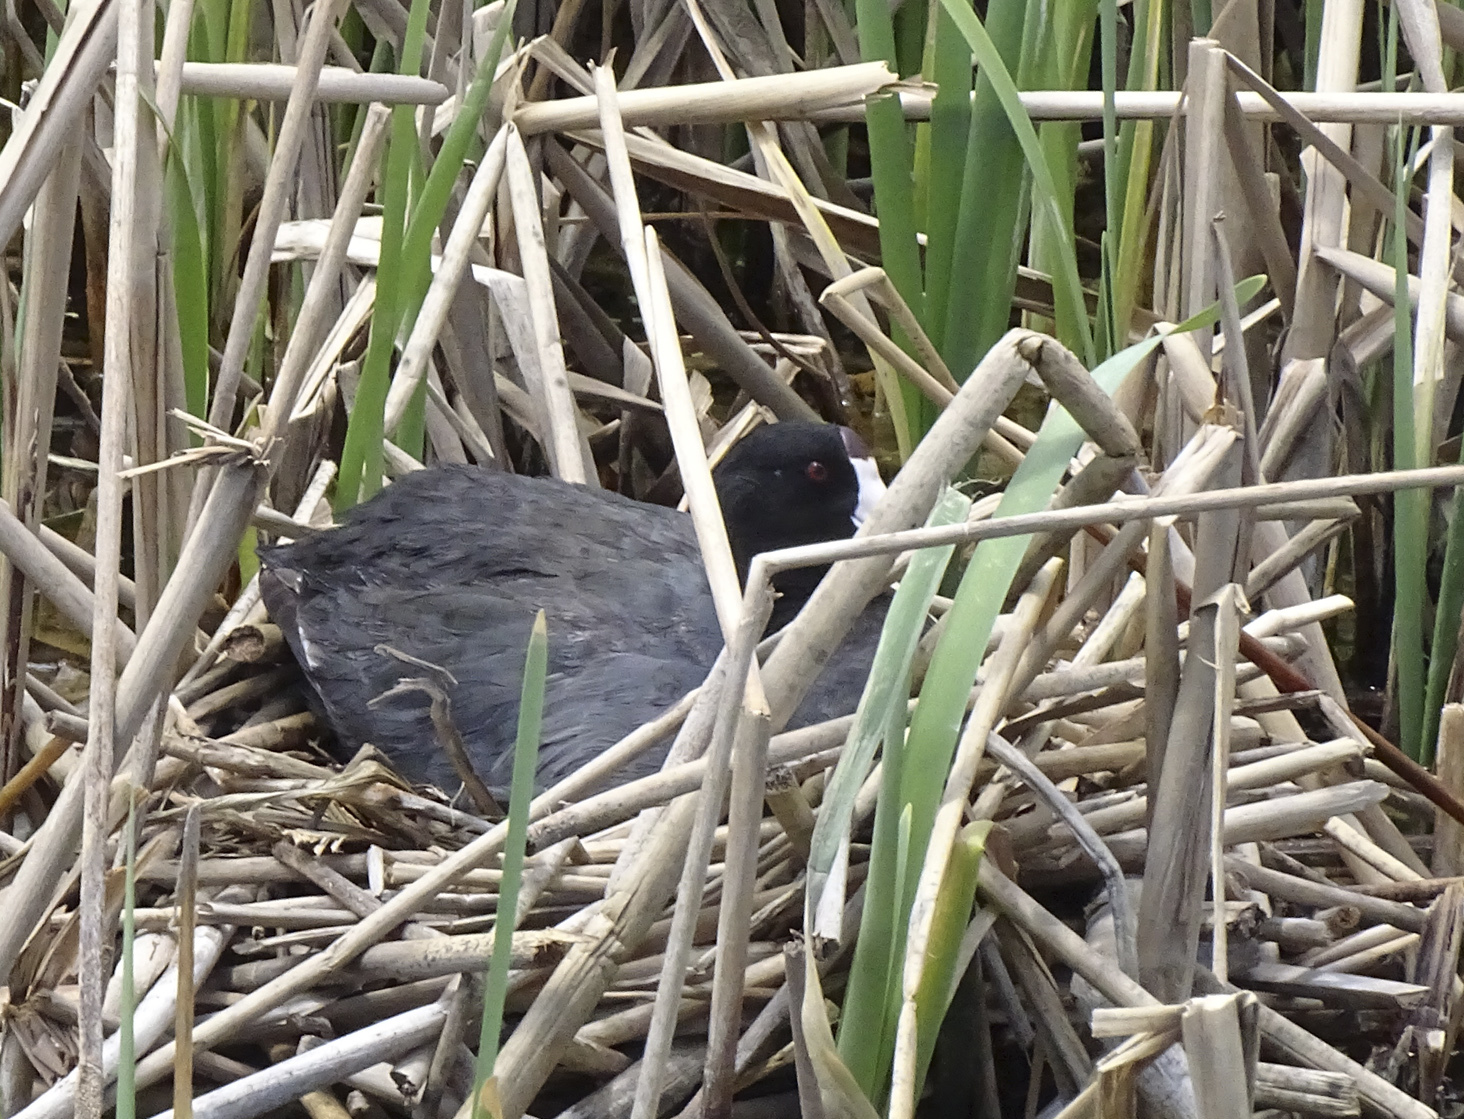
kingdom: Animalia
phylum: Chordata
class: Aves
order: Gruiformes
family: Rallidae
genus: Fulica
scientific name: Fulica americana
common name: American coot
